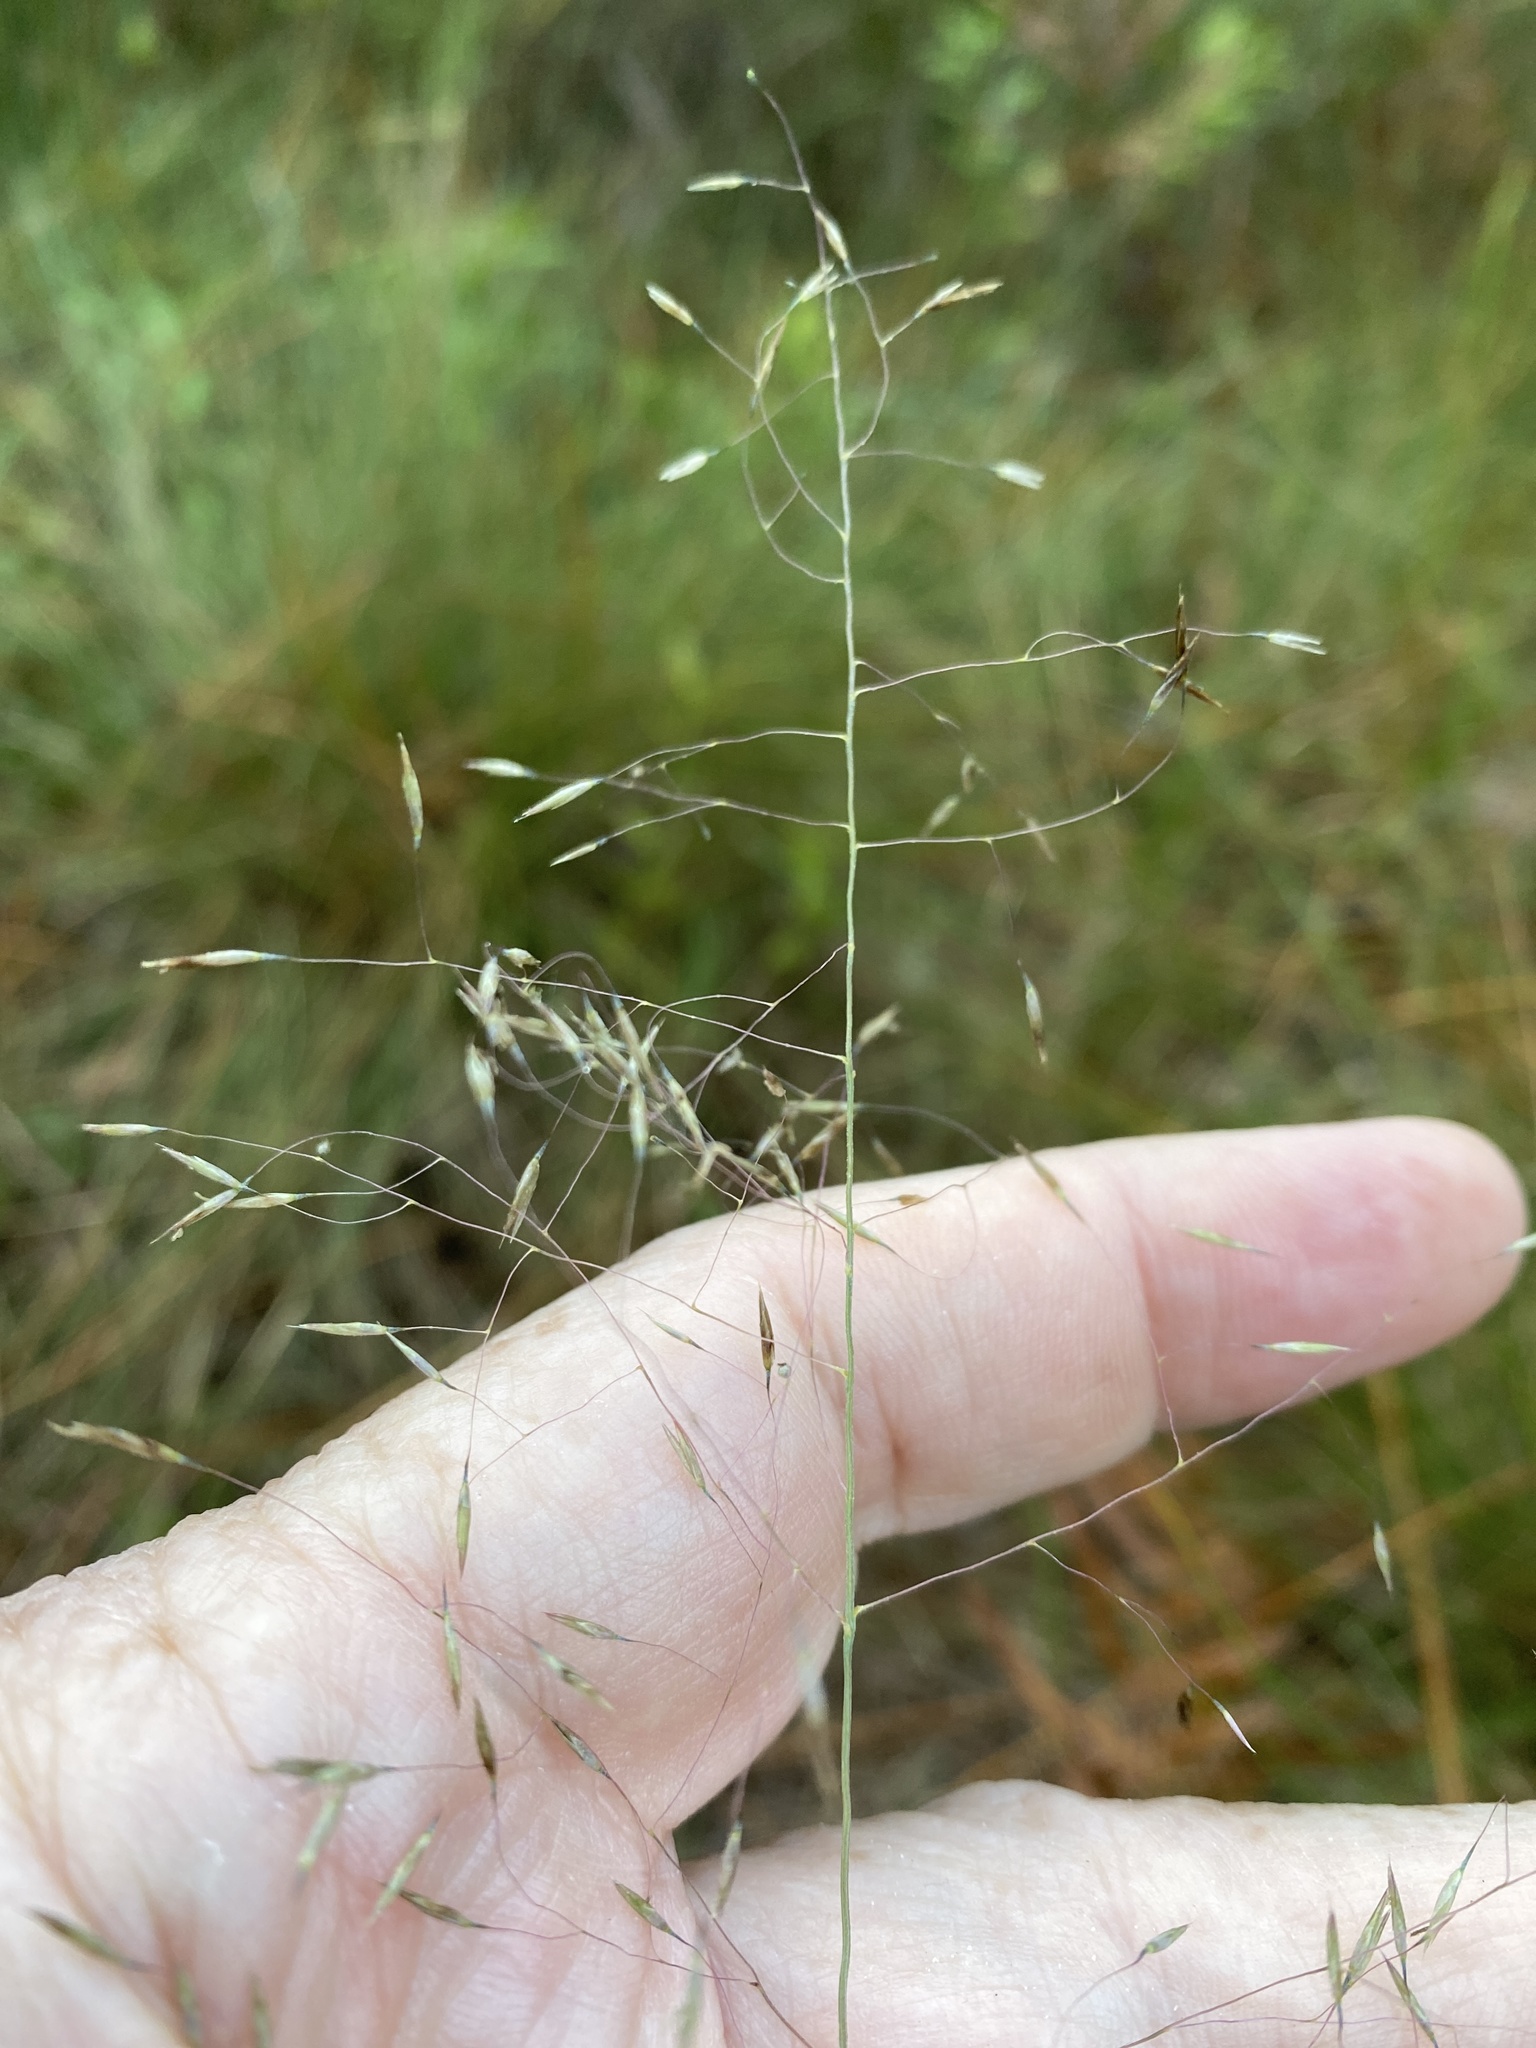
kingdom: Plantae
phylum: Tracheophyta
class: Liliopsida
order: Poales
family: Poaceae
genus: Muhlenbergia
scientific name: Muhlenbergia expansa
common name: Savannah hairgrass
